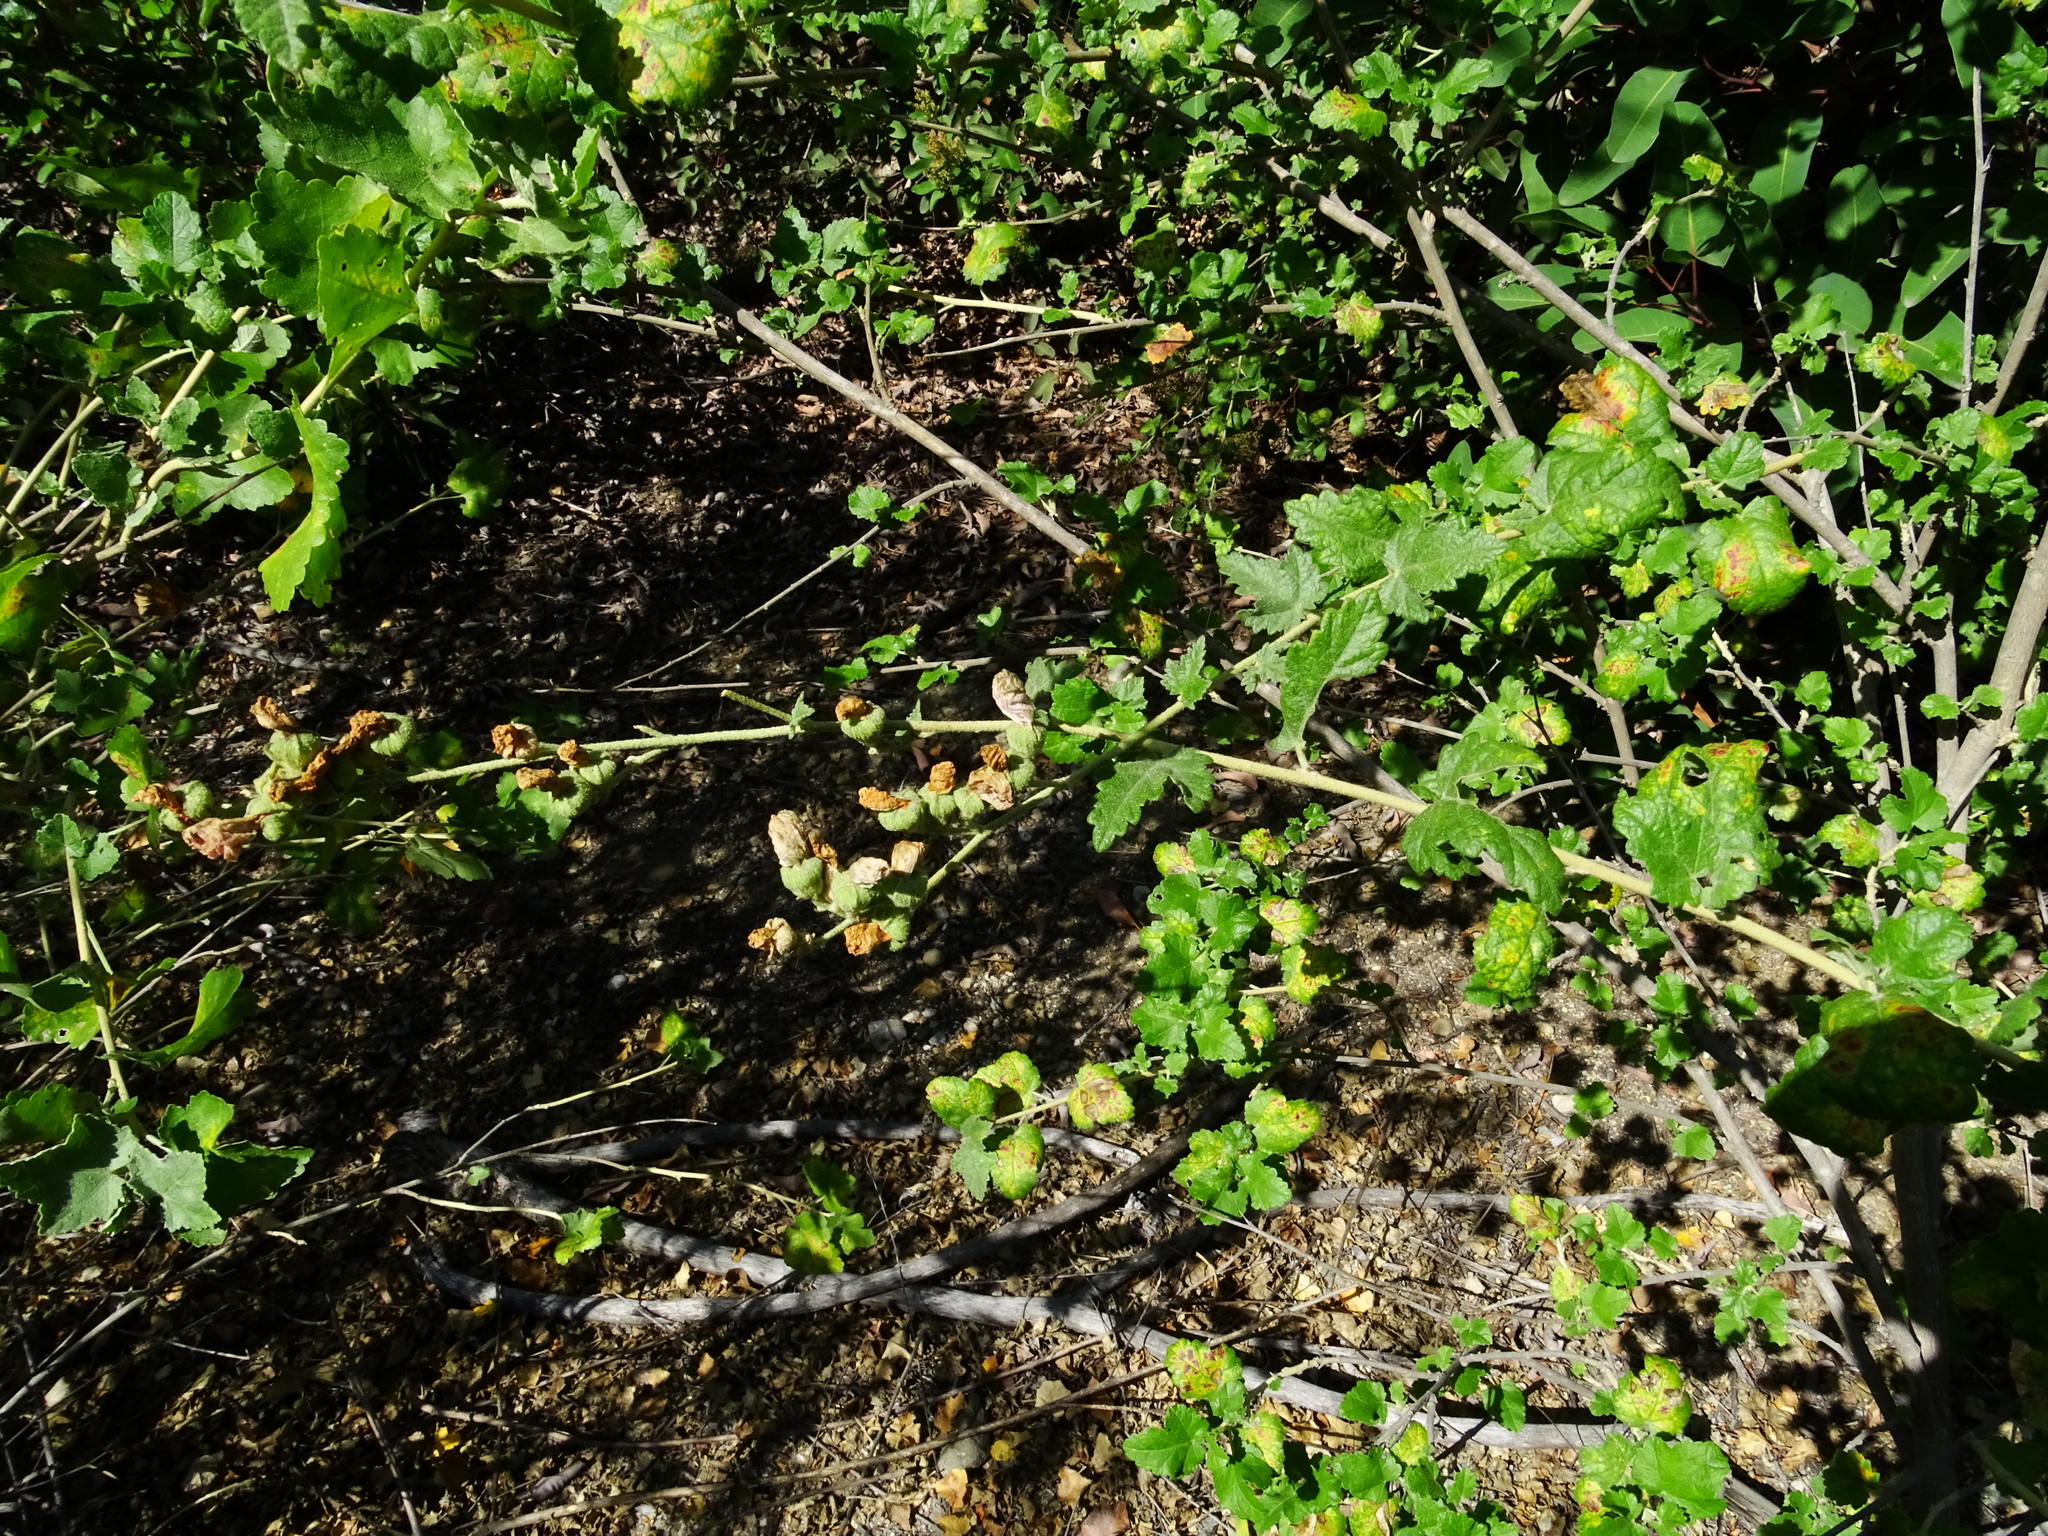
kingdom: Plantae
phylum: Tracheophyta
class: Magnoliopsida
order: Malvales
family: Malvaceae
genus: Malacothamnus
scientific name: Malacothamnus fasciculatus
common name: Sant cruz island bush-mallow
